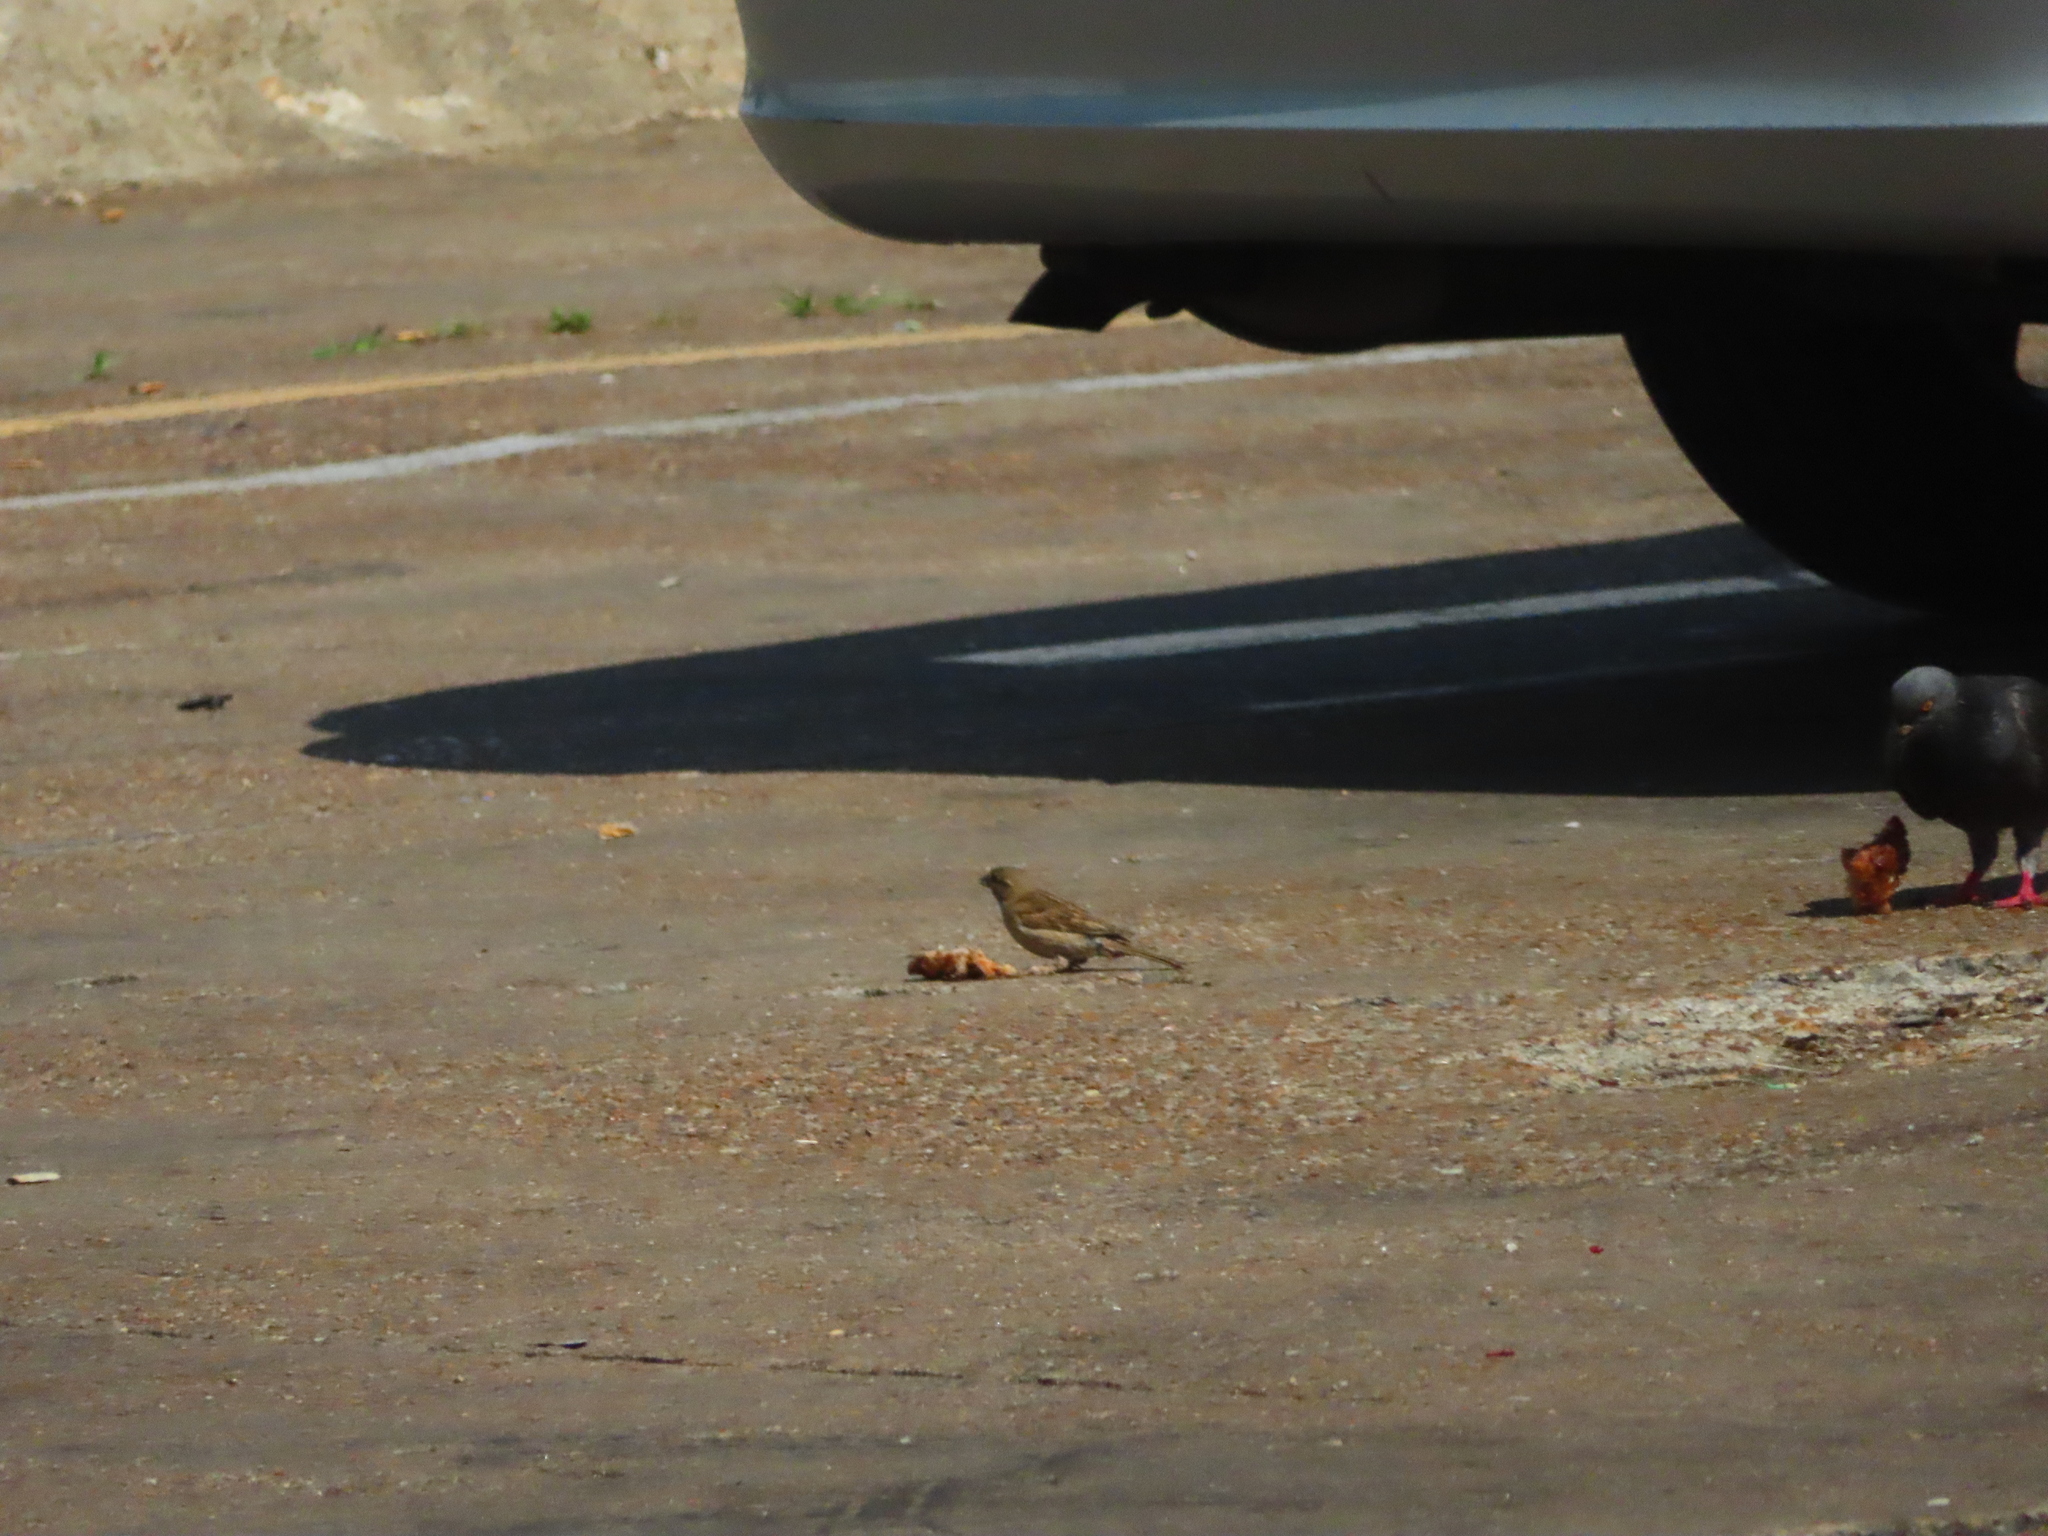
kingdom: Animalia
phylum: Chordata
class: Aves
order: Passeriformes
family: Passeridae
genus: Passer
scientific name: Passer domesticus
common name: House sparrow
